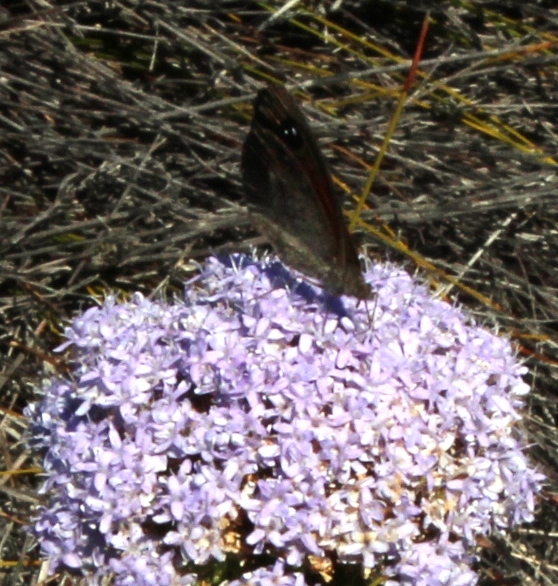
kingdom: Plantae
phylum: Tracheophyta
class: Magnoliopsida
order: Lamiales
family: Scrophulariaceae
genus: Pseudoselago
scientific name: Pseudoselago serrata
